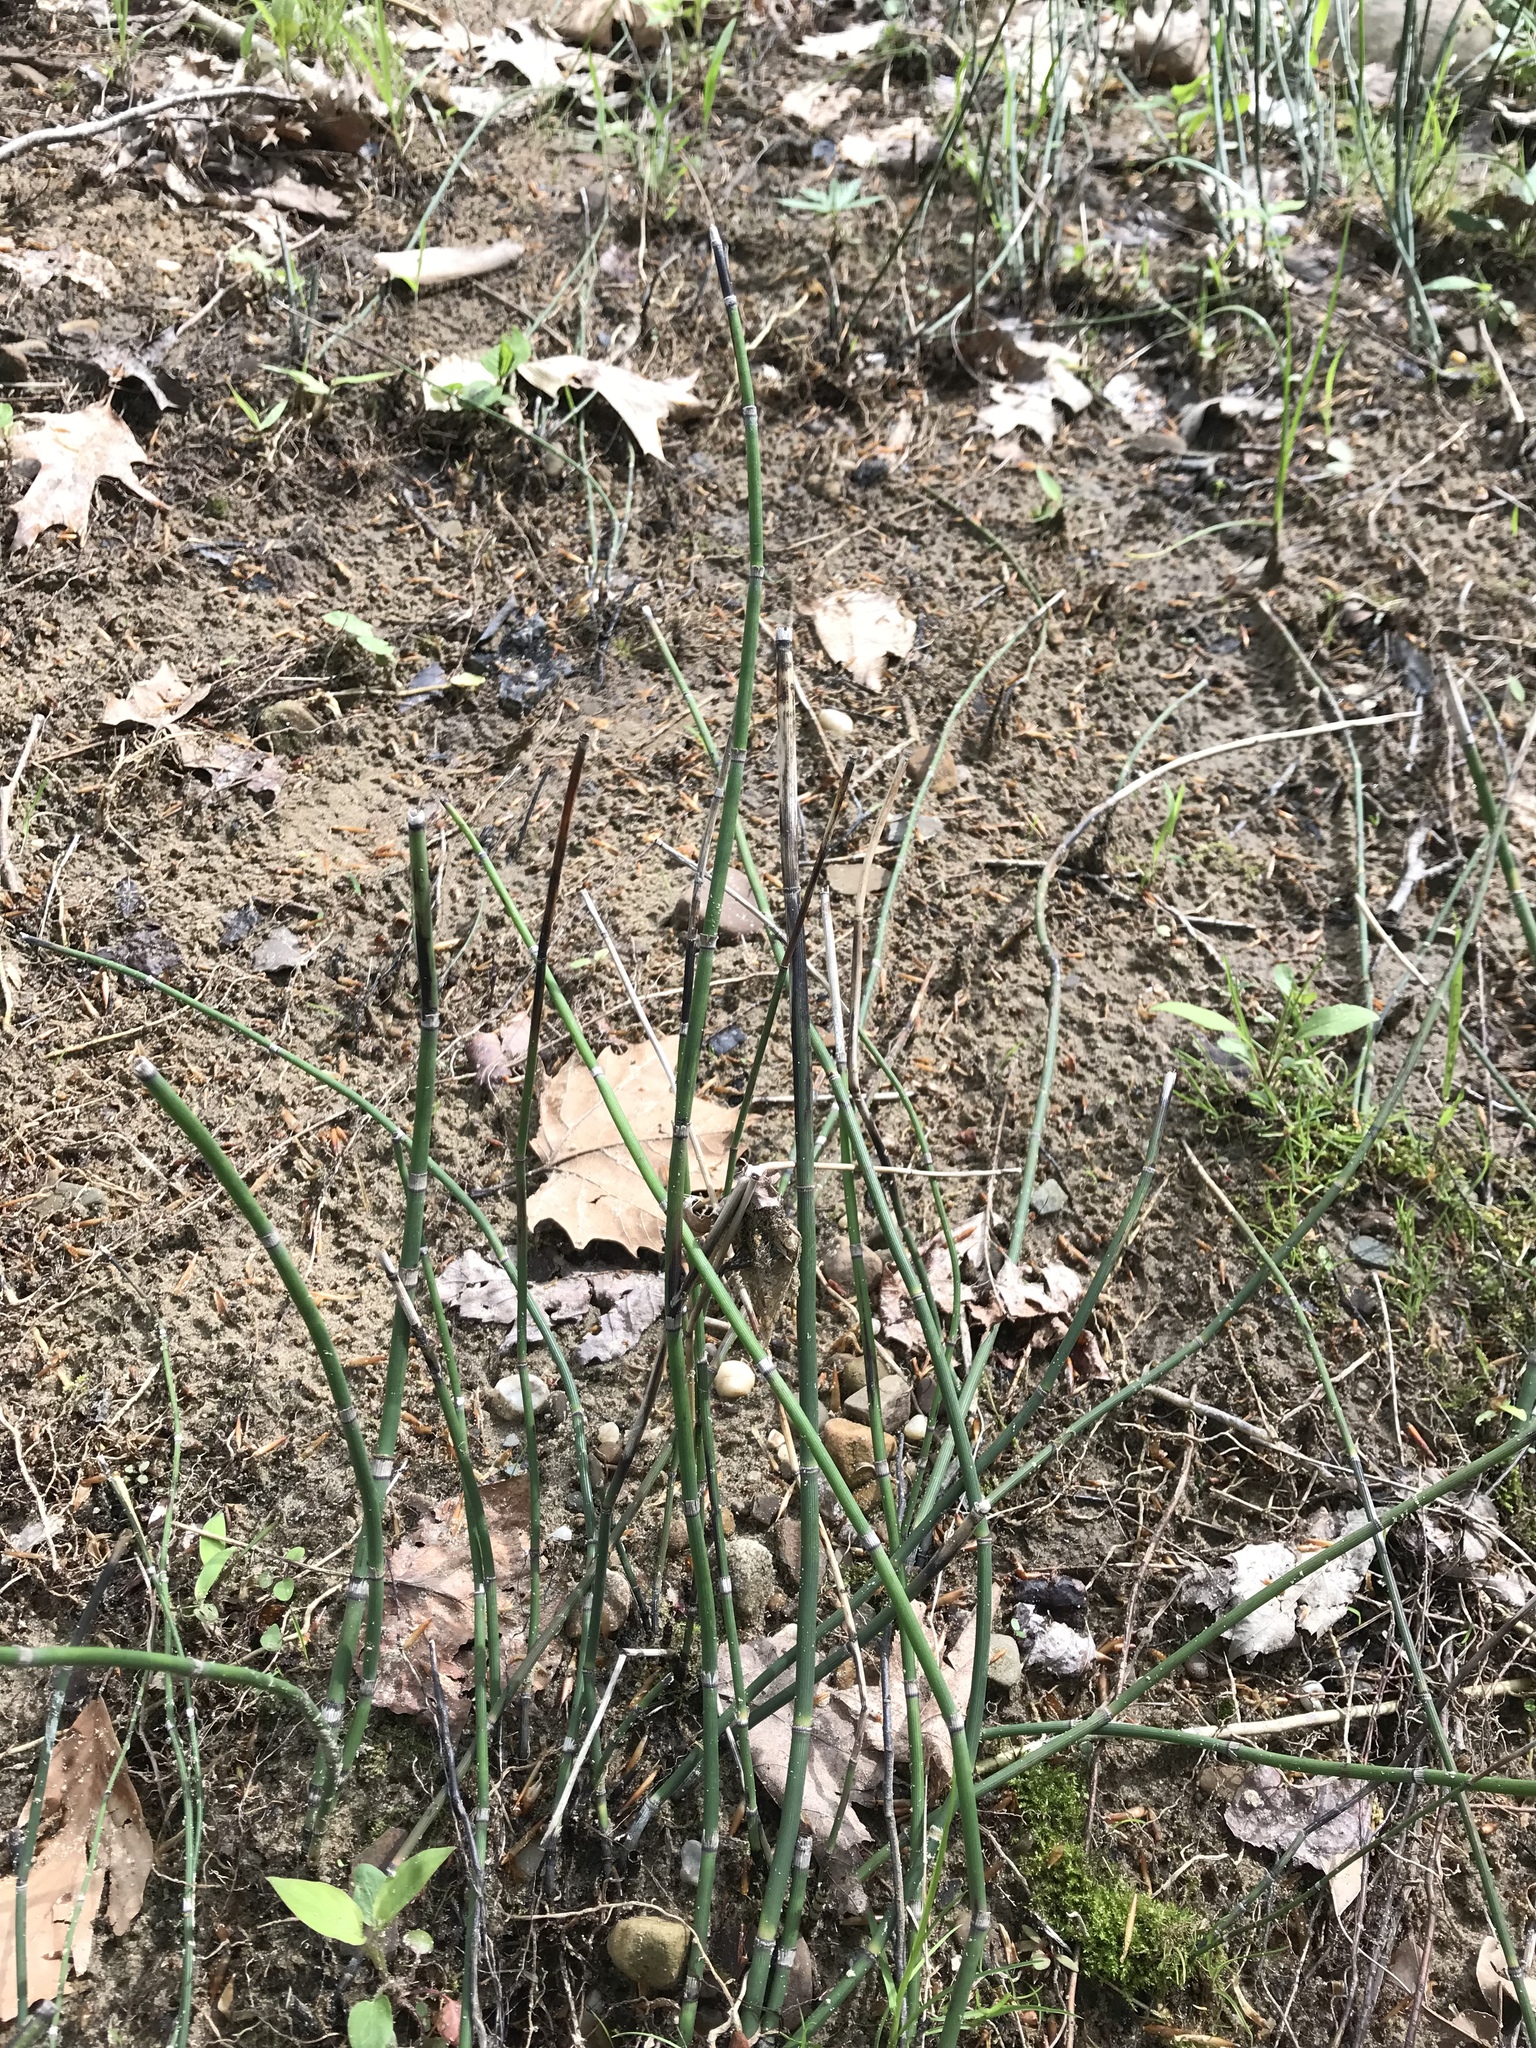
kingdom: Plantae
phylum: Tracheophyta
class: Polypodiopsida
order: Equisetales
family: Equisetaceae
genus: Equisetum
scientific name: Equisetum hyemale
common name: Rough horsetail
